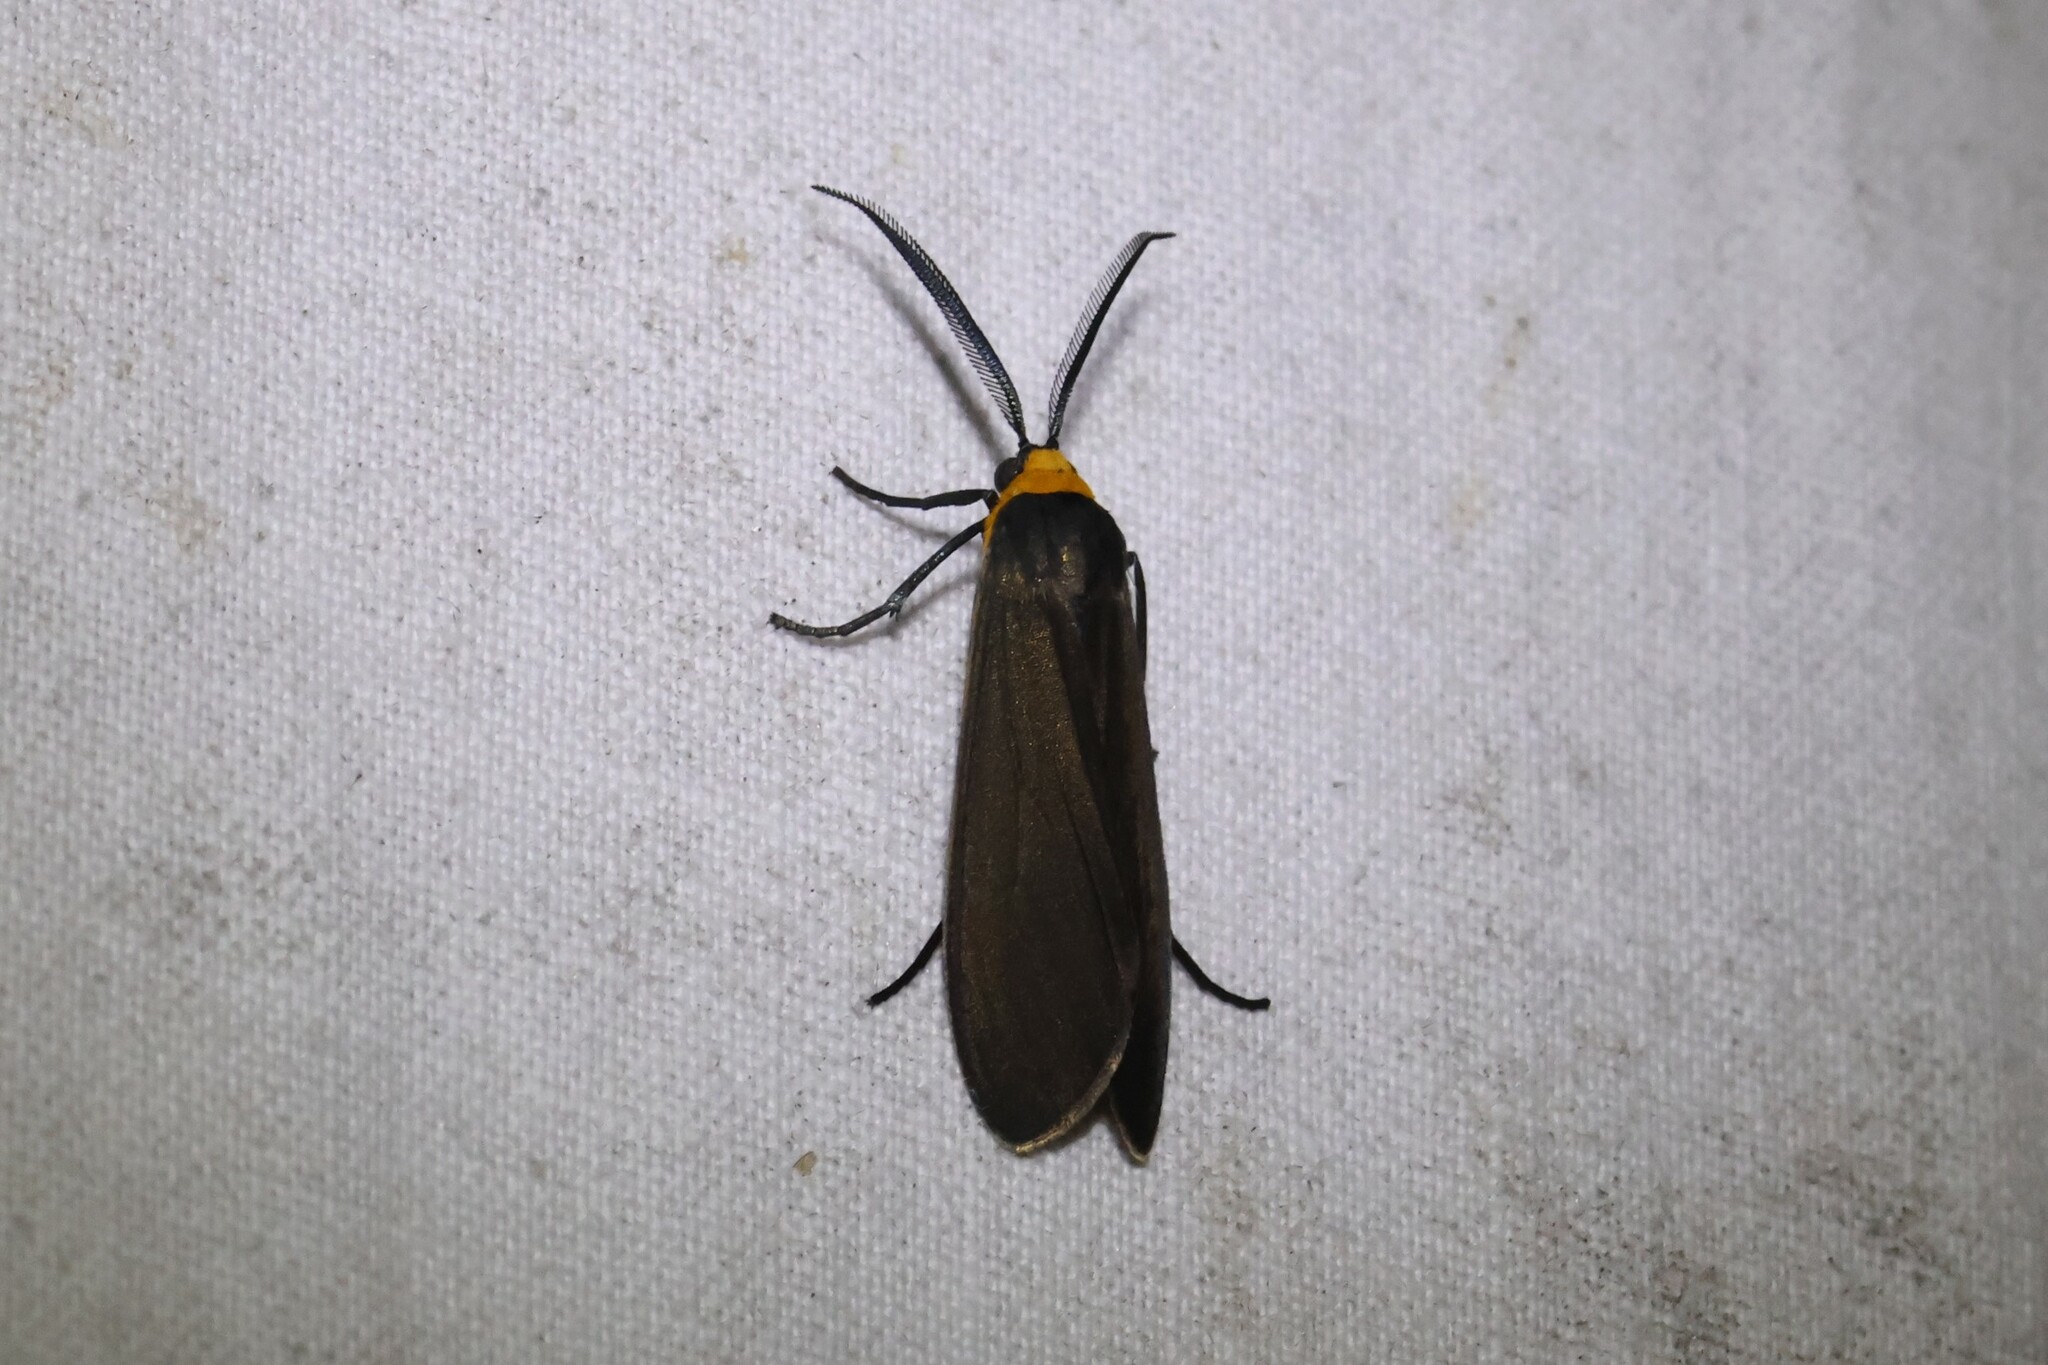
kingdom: Animalia
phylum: Arthropoda
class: Insecta
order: Lepidoptera
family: Erebidae
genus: Cisseps
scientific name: Cisseps fulvicollis
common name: Yellow-collared scape moth
